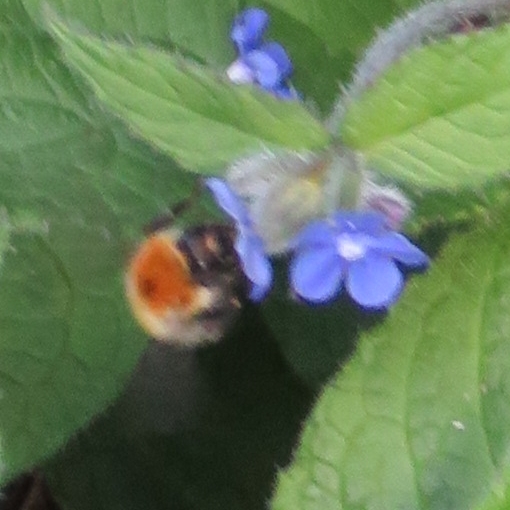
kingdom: Animalia
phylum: Arthropoda
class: Insecta
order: Hymenoptera
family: Apidae
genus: Bombus
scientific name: Bombus pascuorum
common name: Common carder bee
